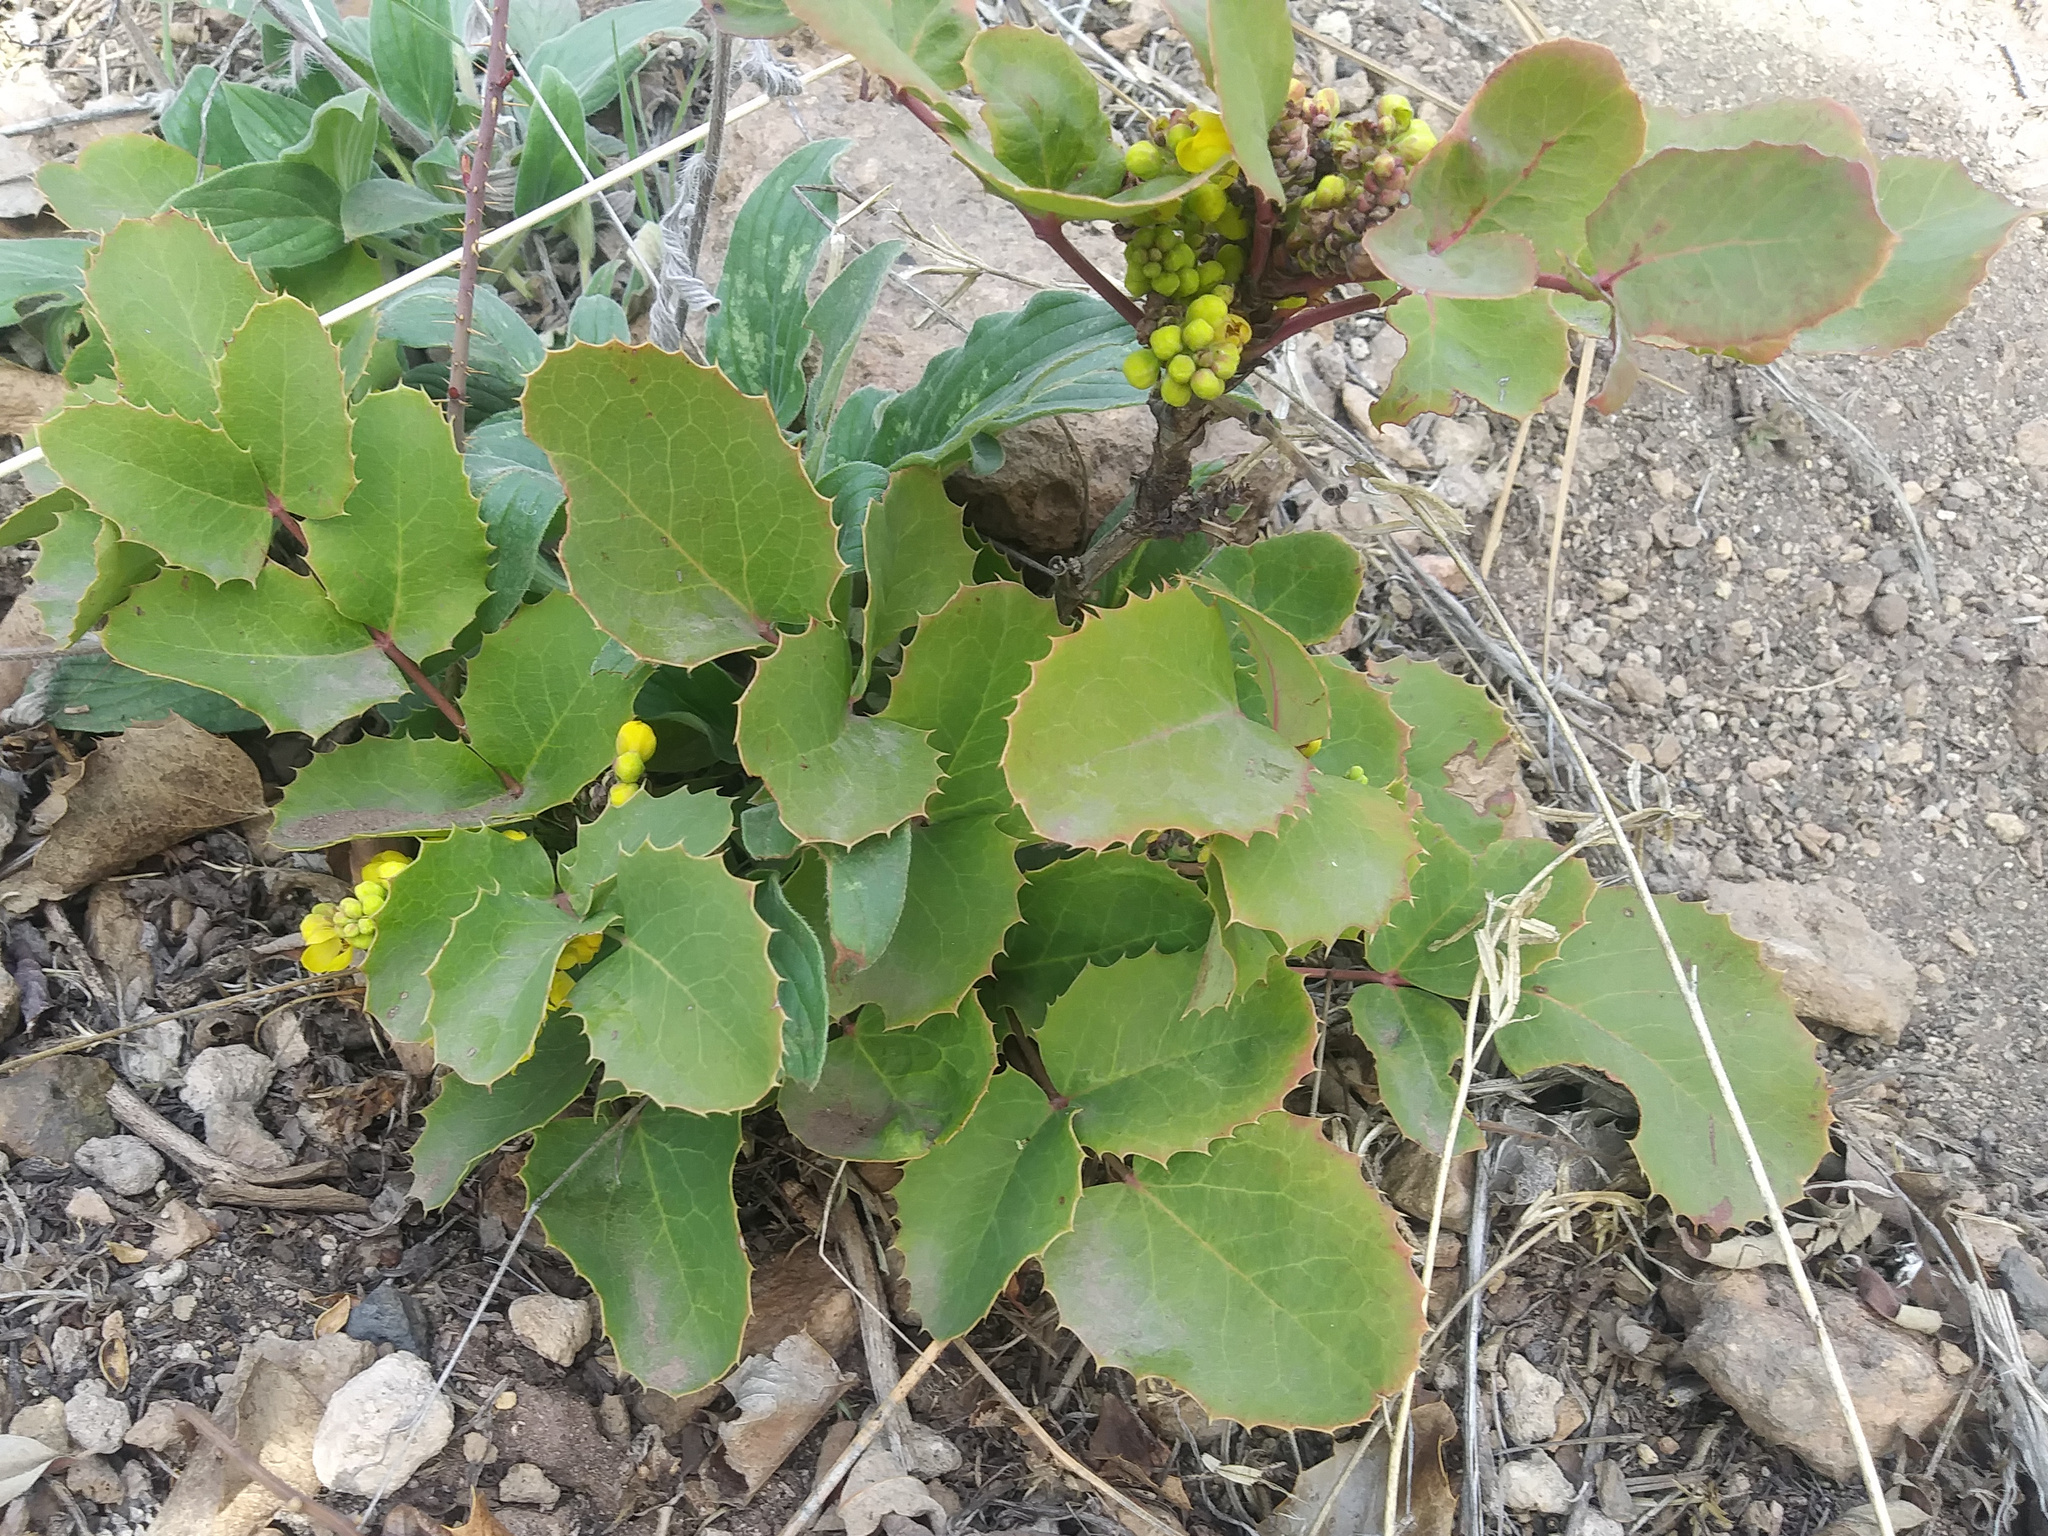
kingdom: Plantae
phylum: Tracheophyta
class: Magnoliopsida
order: Ranunculales
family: Berberidaceae
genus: Mahonia
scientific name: Mahonia repens
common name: Creeping oregon-grape
